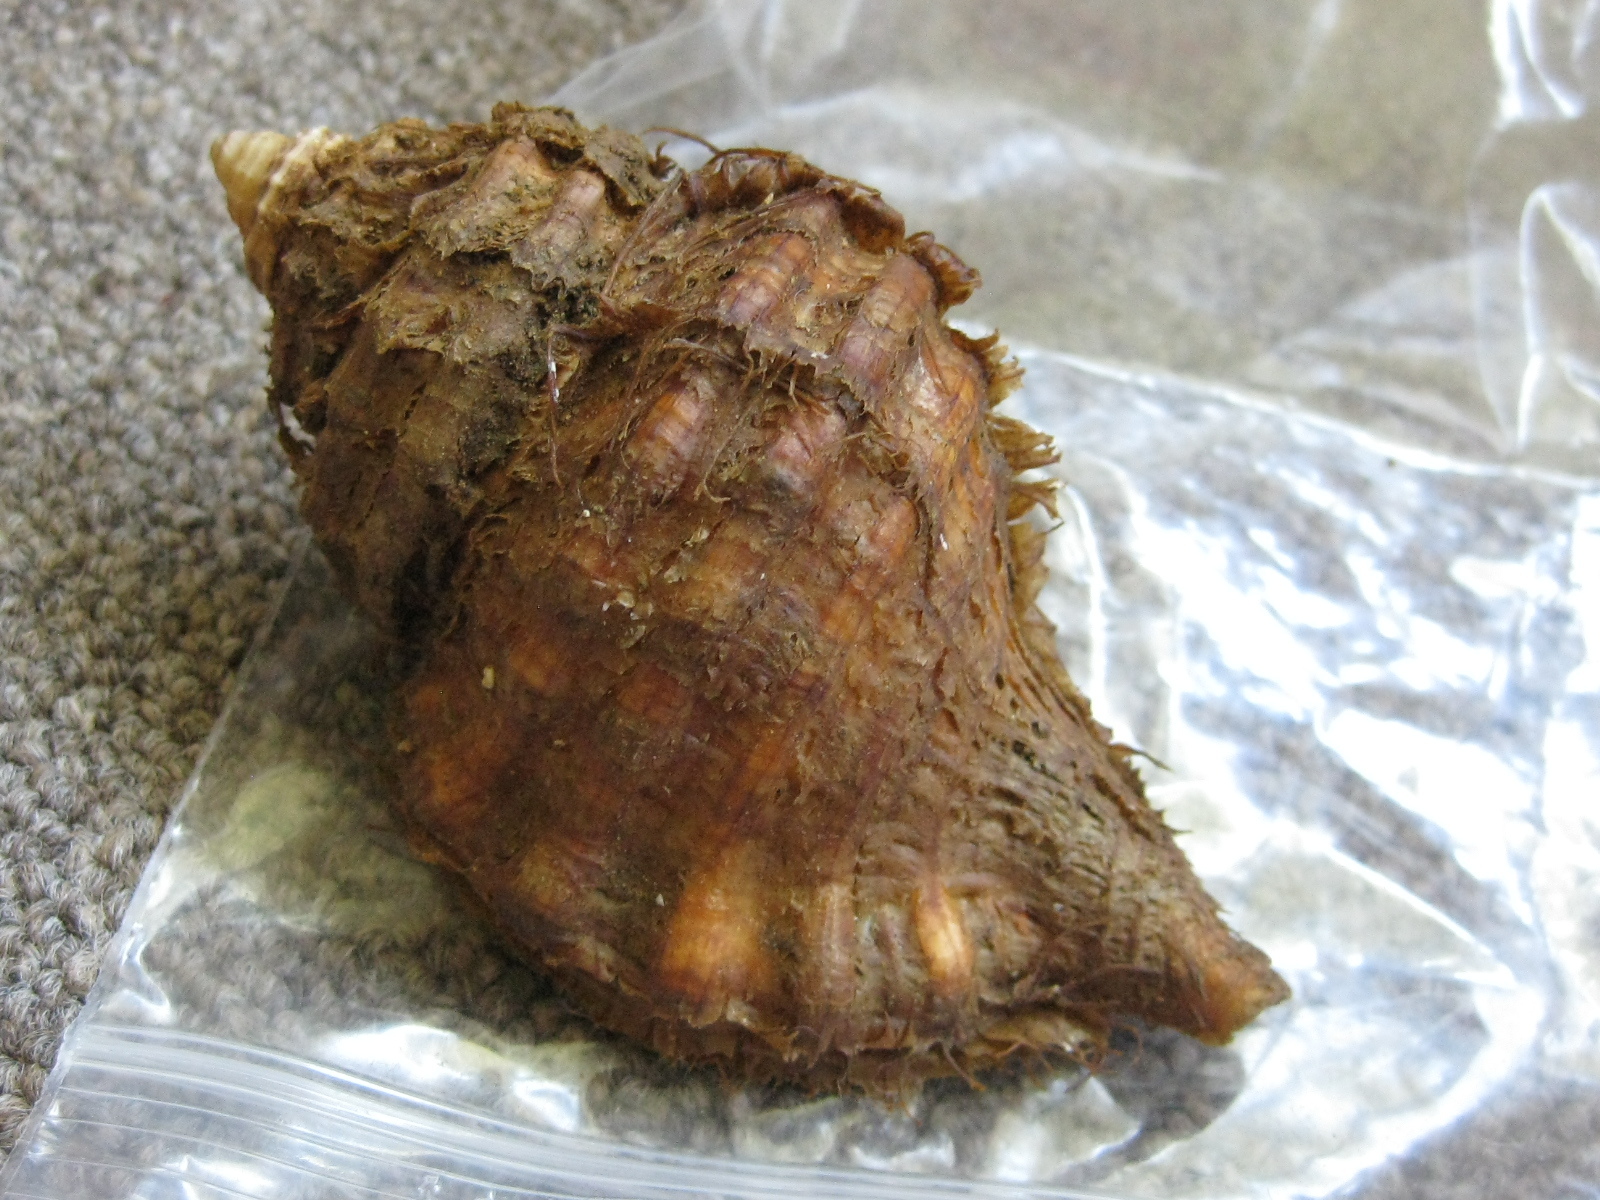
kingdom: Animalia
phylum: Mollusca
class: Gastropoda
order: Littorinimorpha
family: Cymatiidae
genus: Monoplex
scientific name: Monoplex parthenopeus
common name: Giant triton
